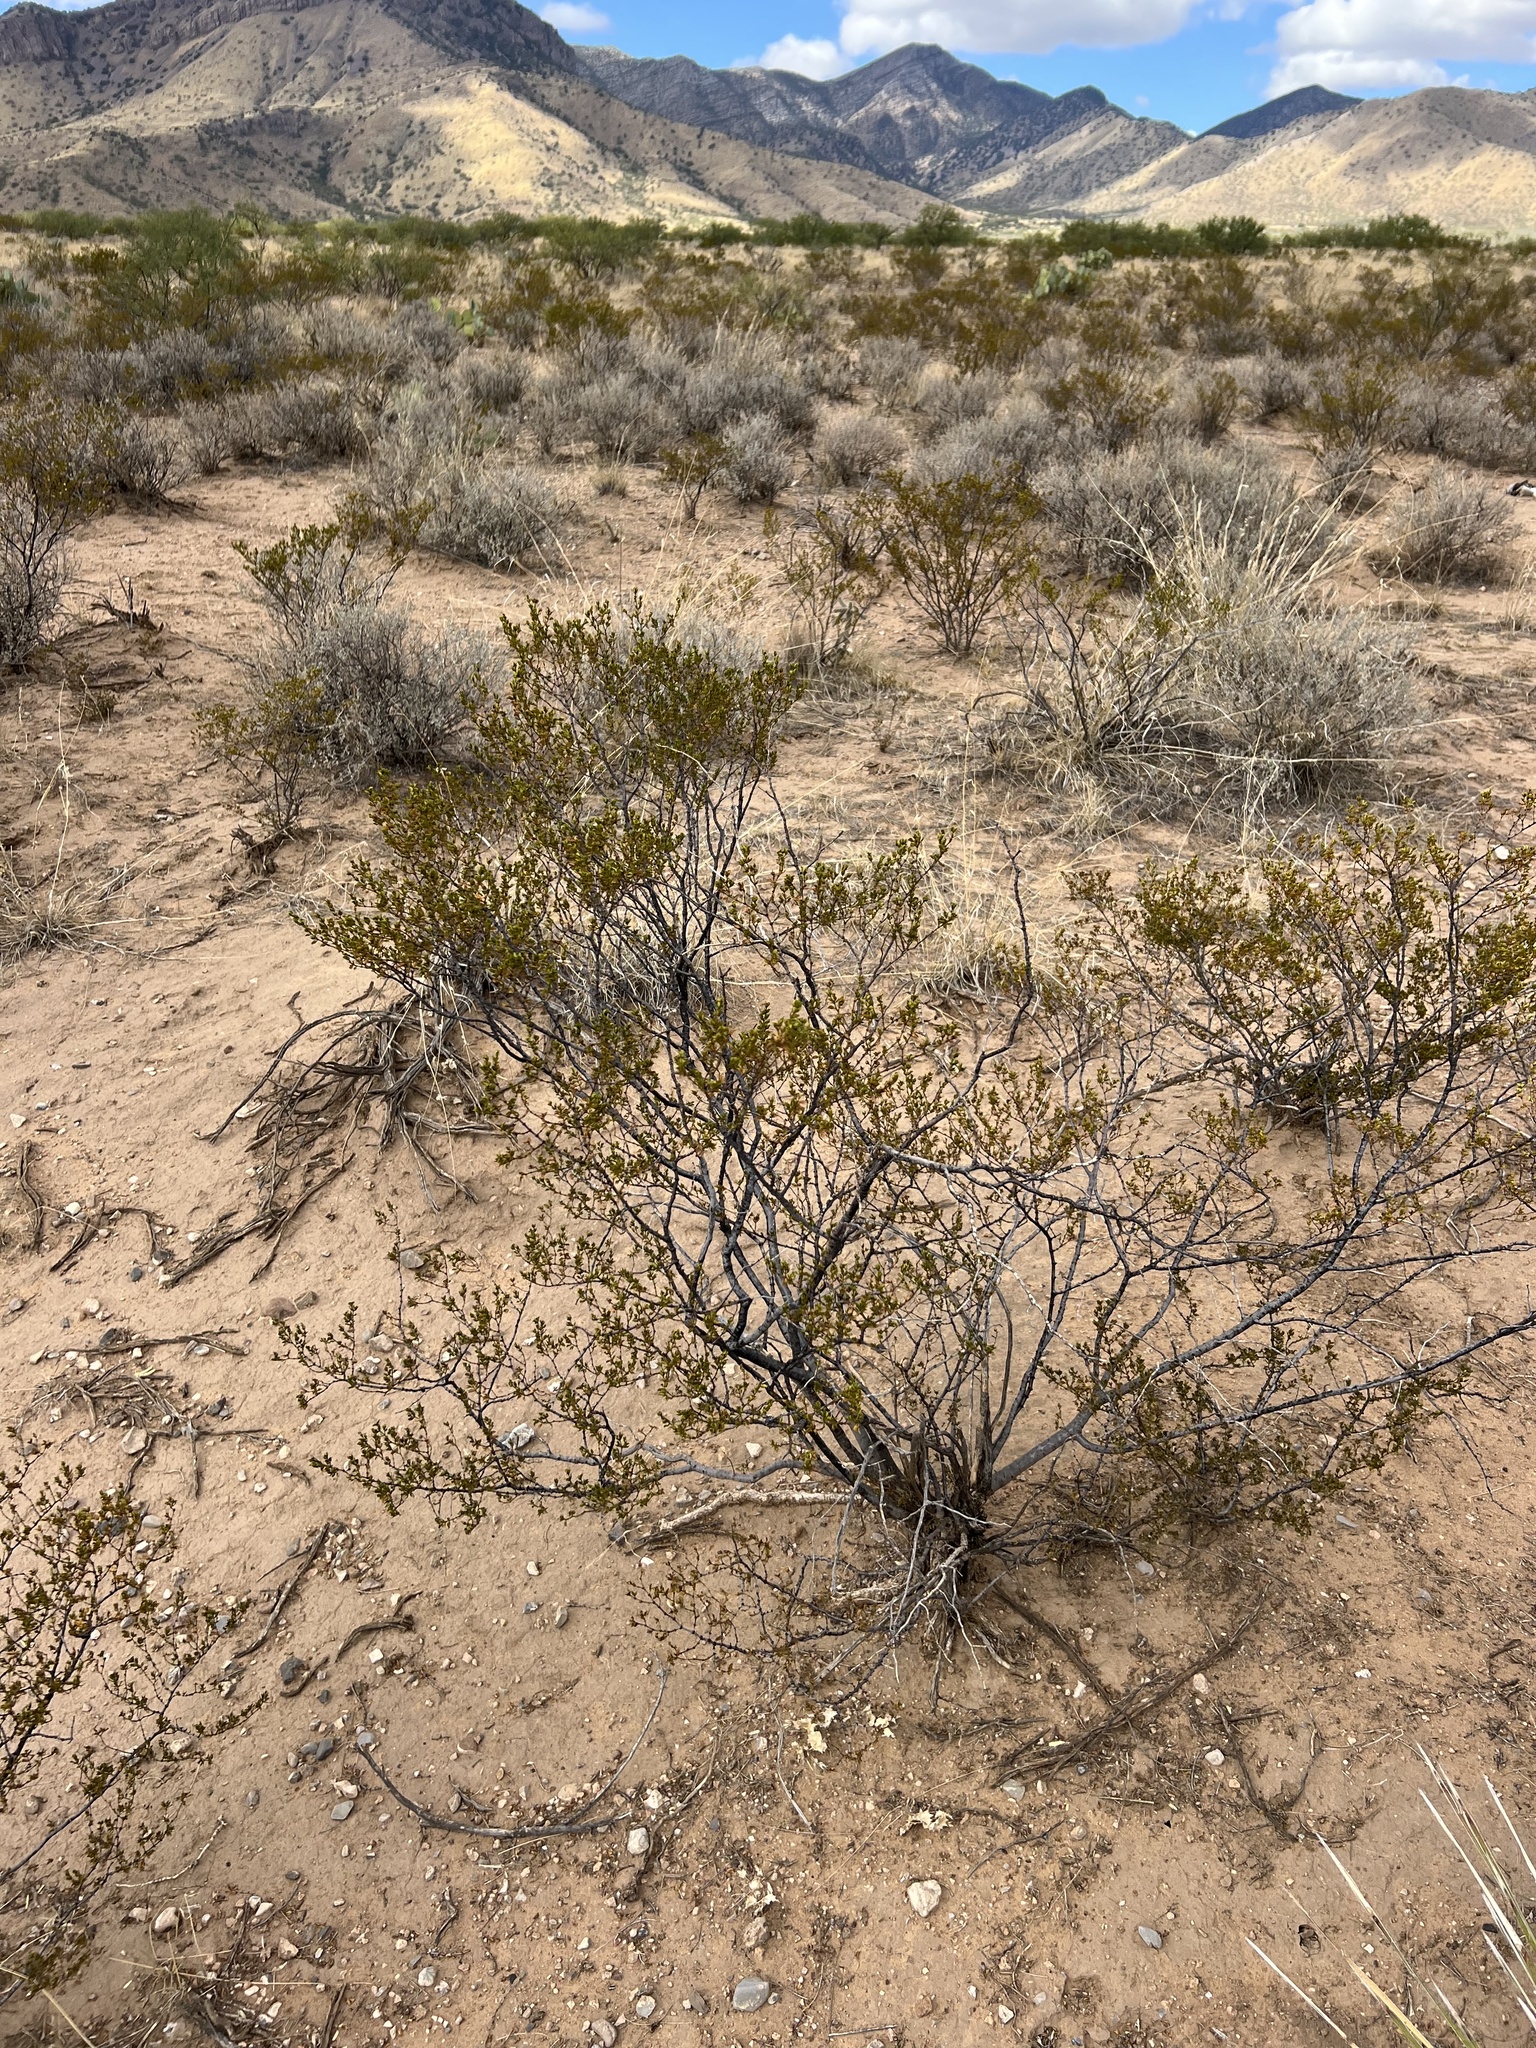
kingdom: Plantae
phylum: Tracheophyta
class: Magnoliopsida
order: Zygophyllales
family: Zygophyllaceae
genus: Larrea
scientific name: Larrea tridentata
